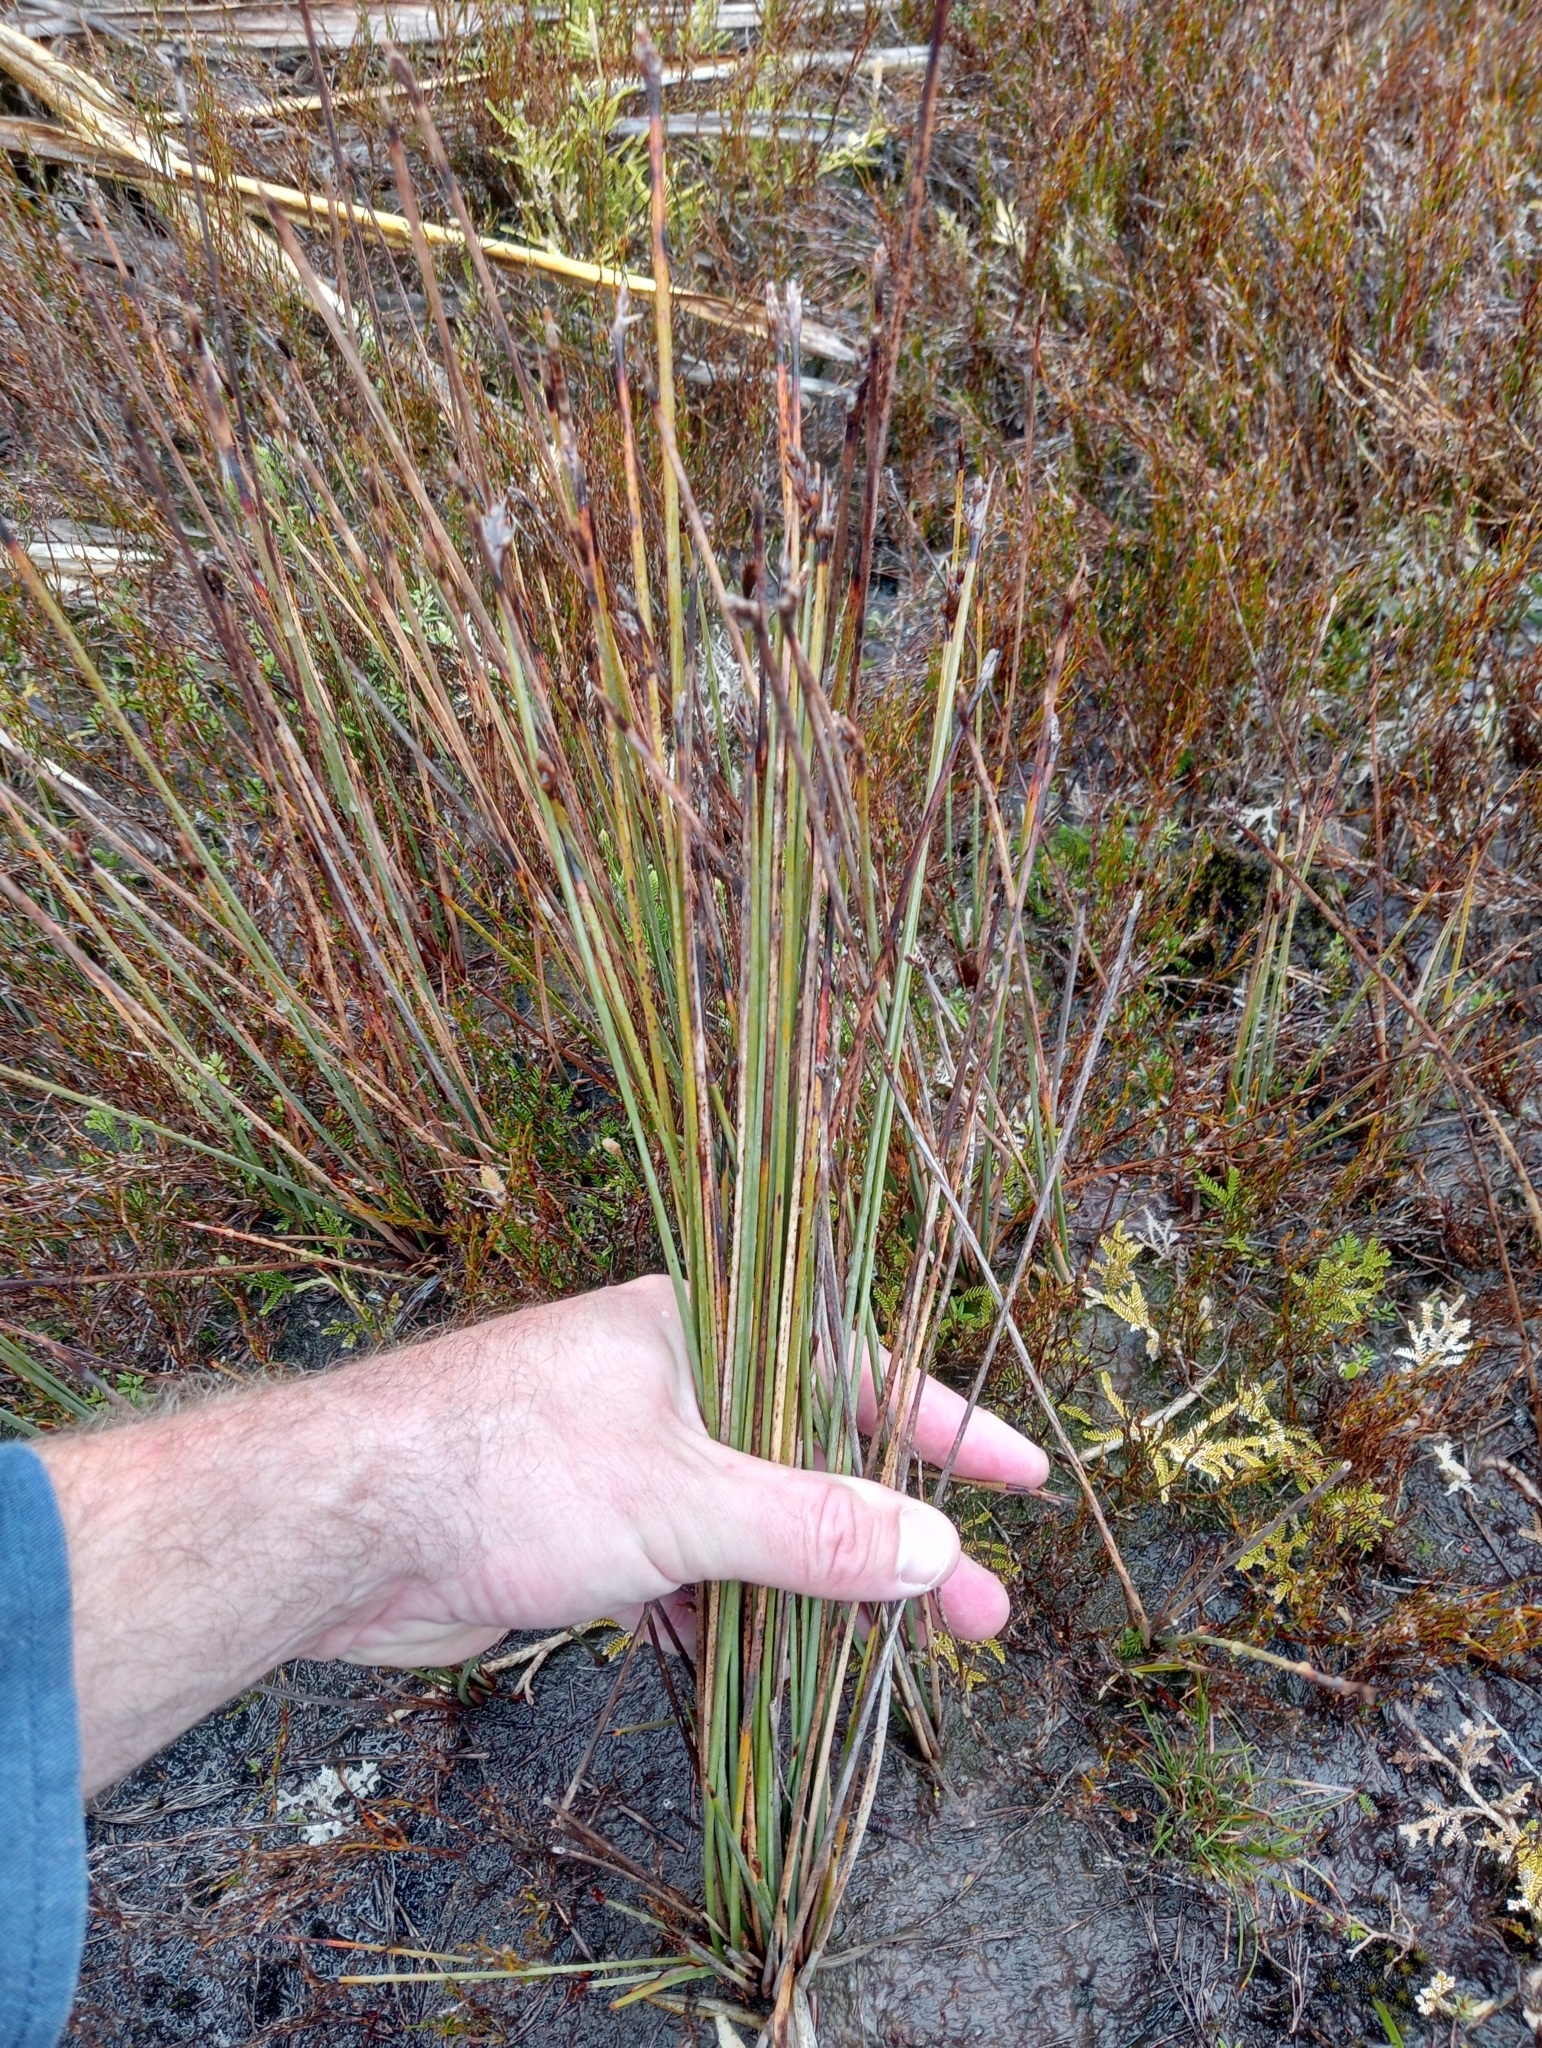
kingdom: Plantae
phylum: Tracheophyta
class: Liliopsida
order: Poales
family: Cyperaceae
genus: Lepidosperma
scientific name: Lepidosperma australe
